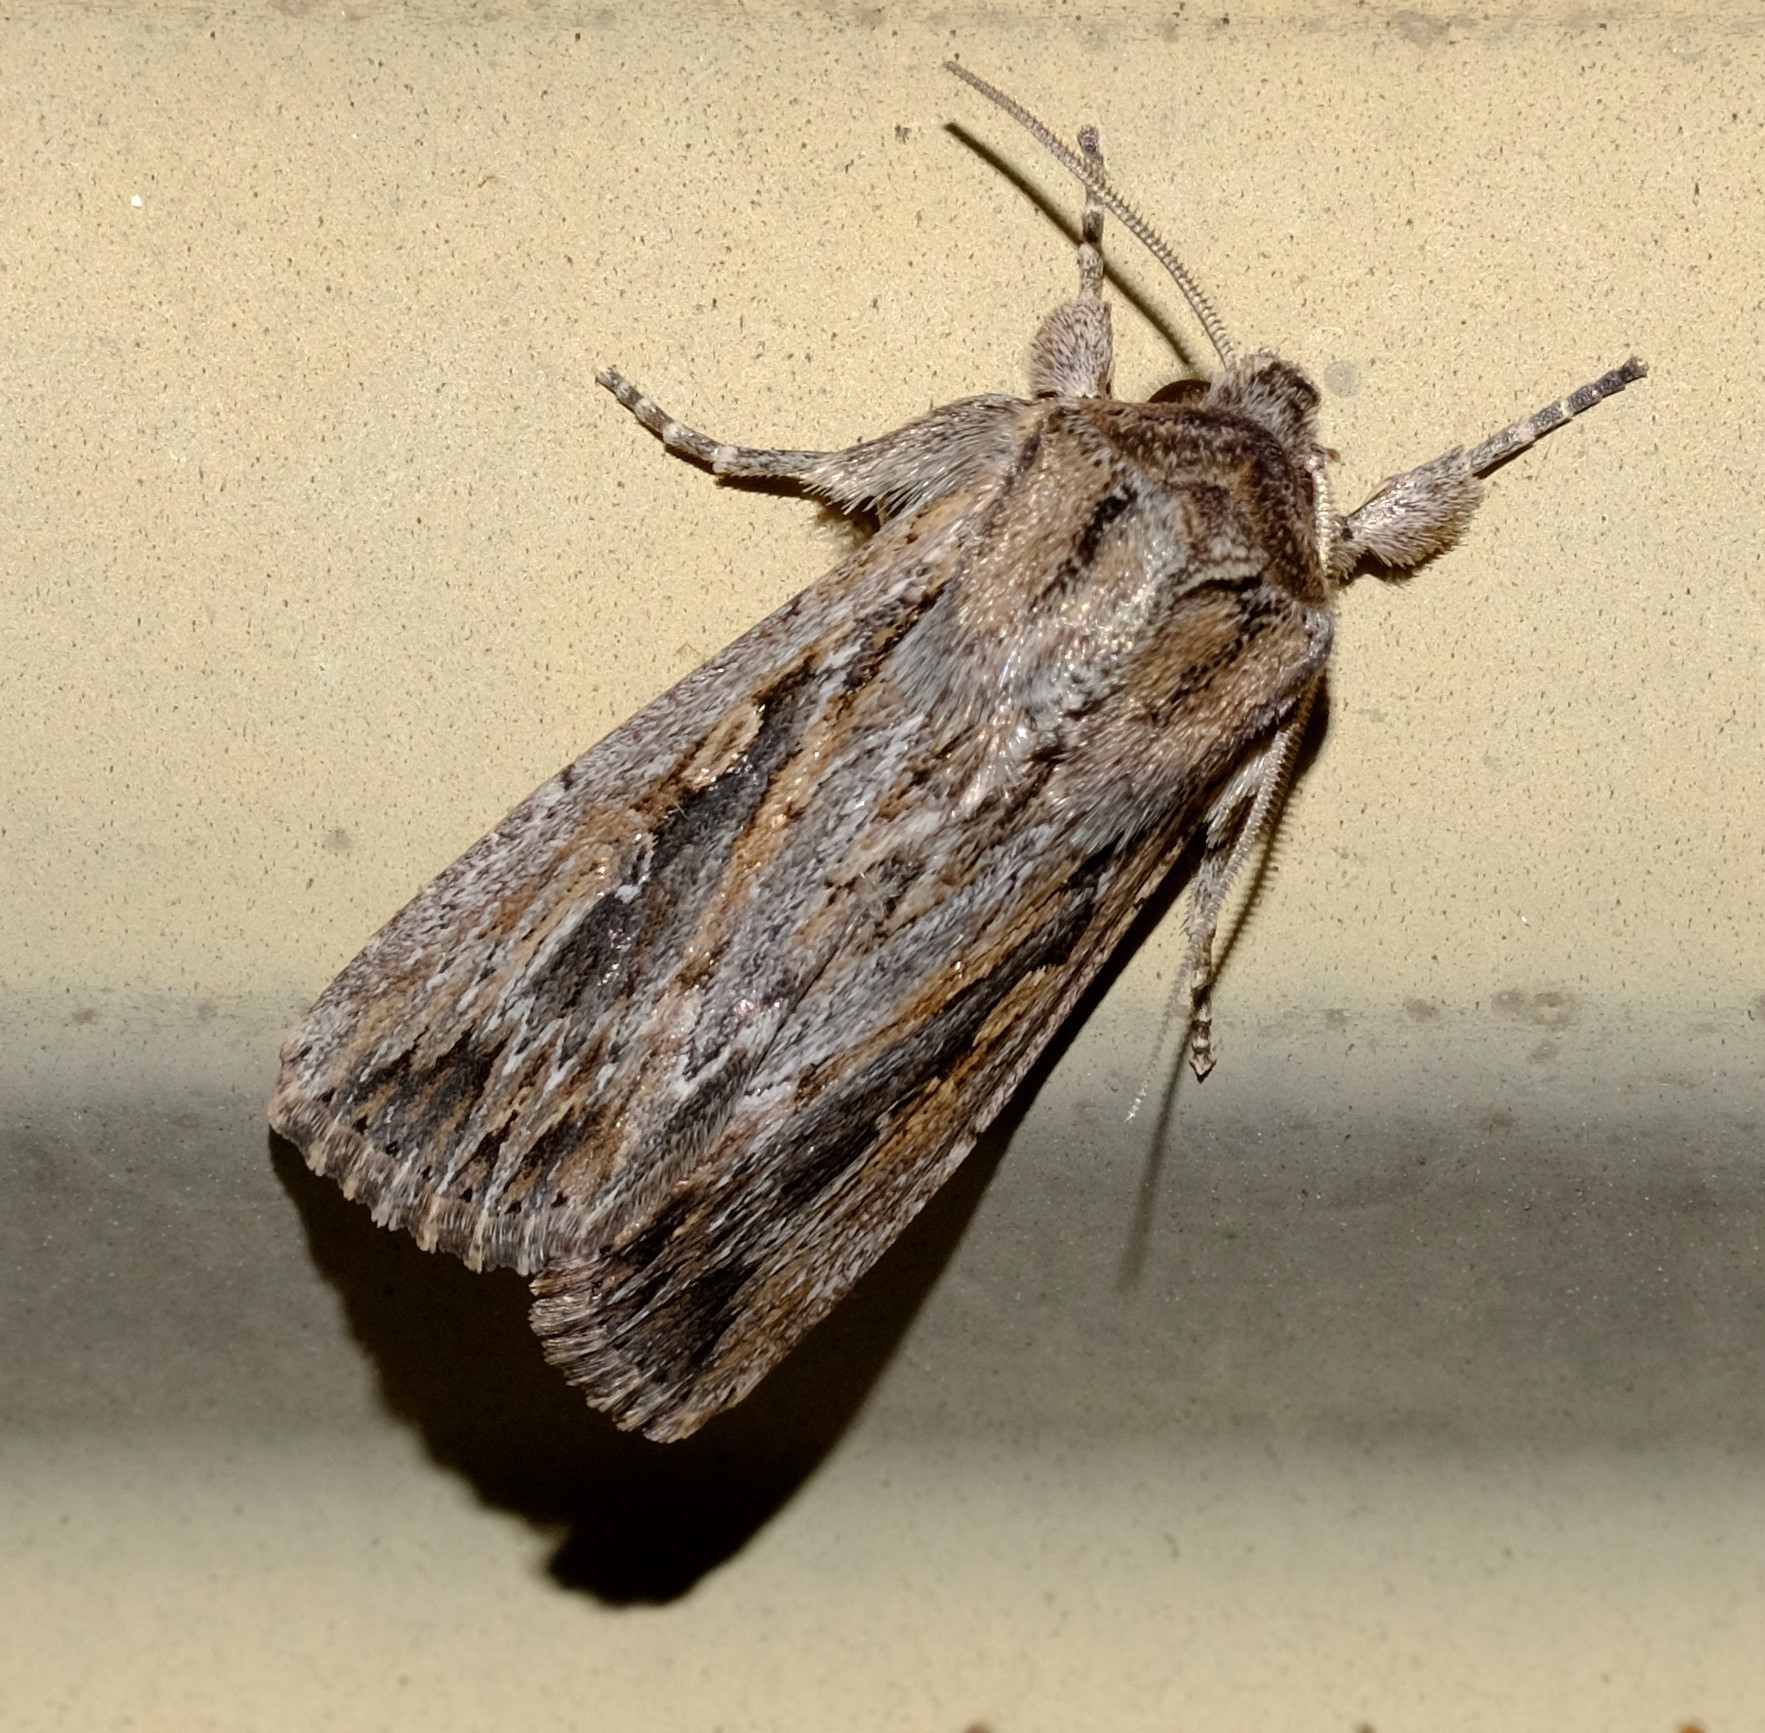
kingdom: Animalia
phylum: Arthropoda
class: Insecta
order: Lepidoptera
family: Noctuidae
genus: Persectania
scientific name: Persectania dyscrita
